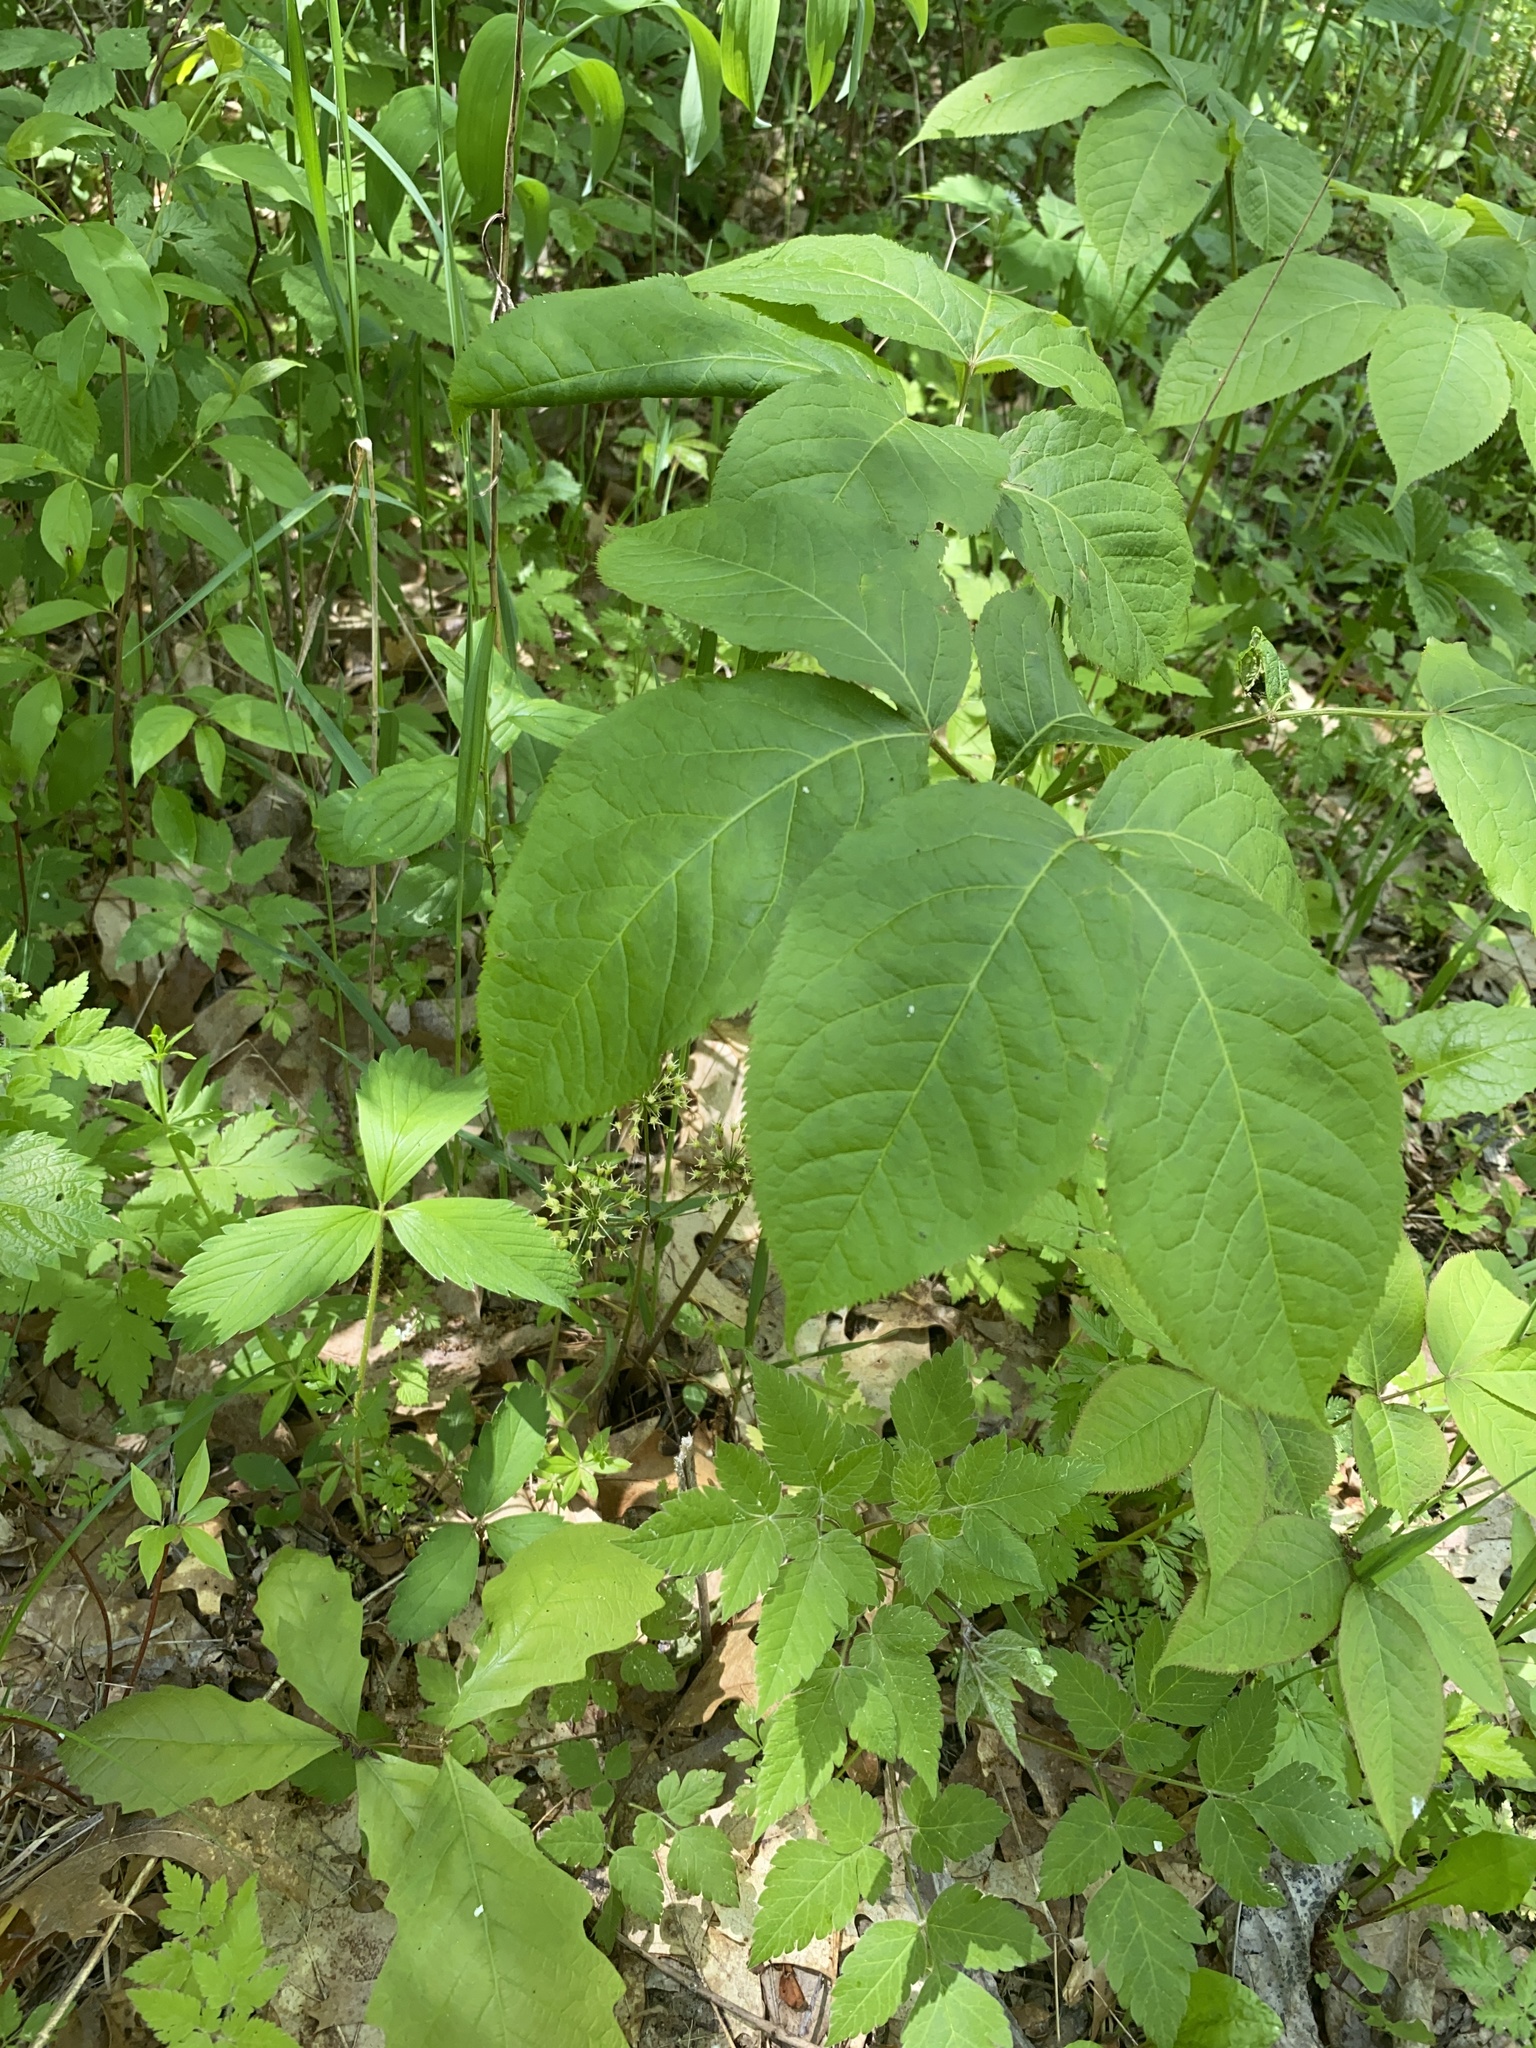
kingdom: Plantae
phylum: Tracheophyta
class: Magnoliopsida
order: Apiales
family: Araliaceae
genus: Aralia
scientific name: Aralia nudicaulis
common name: Wild sarsaparilla
